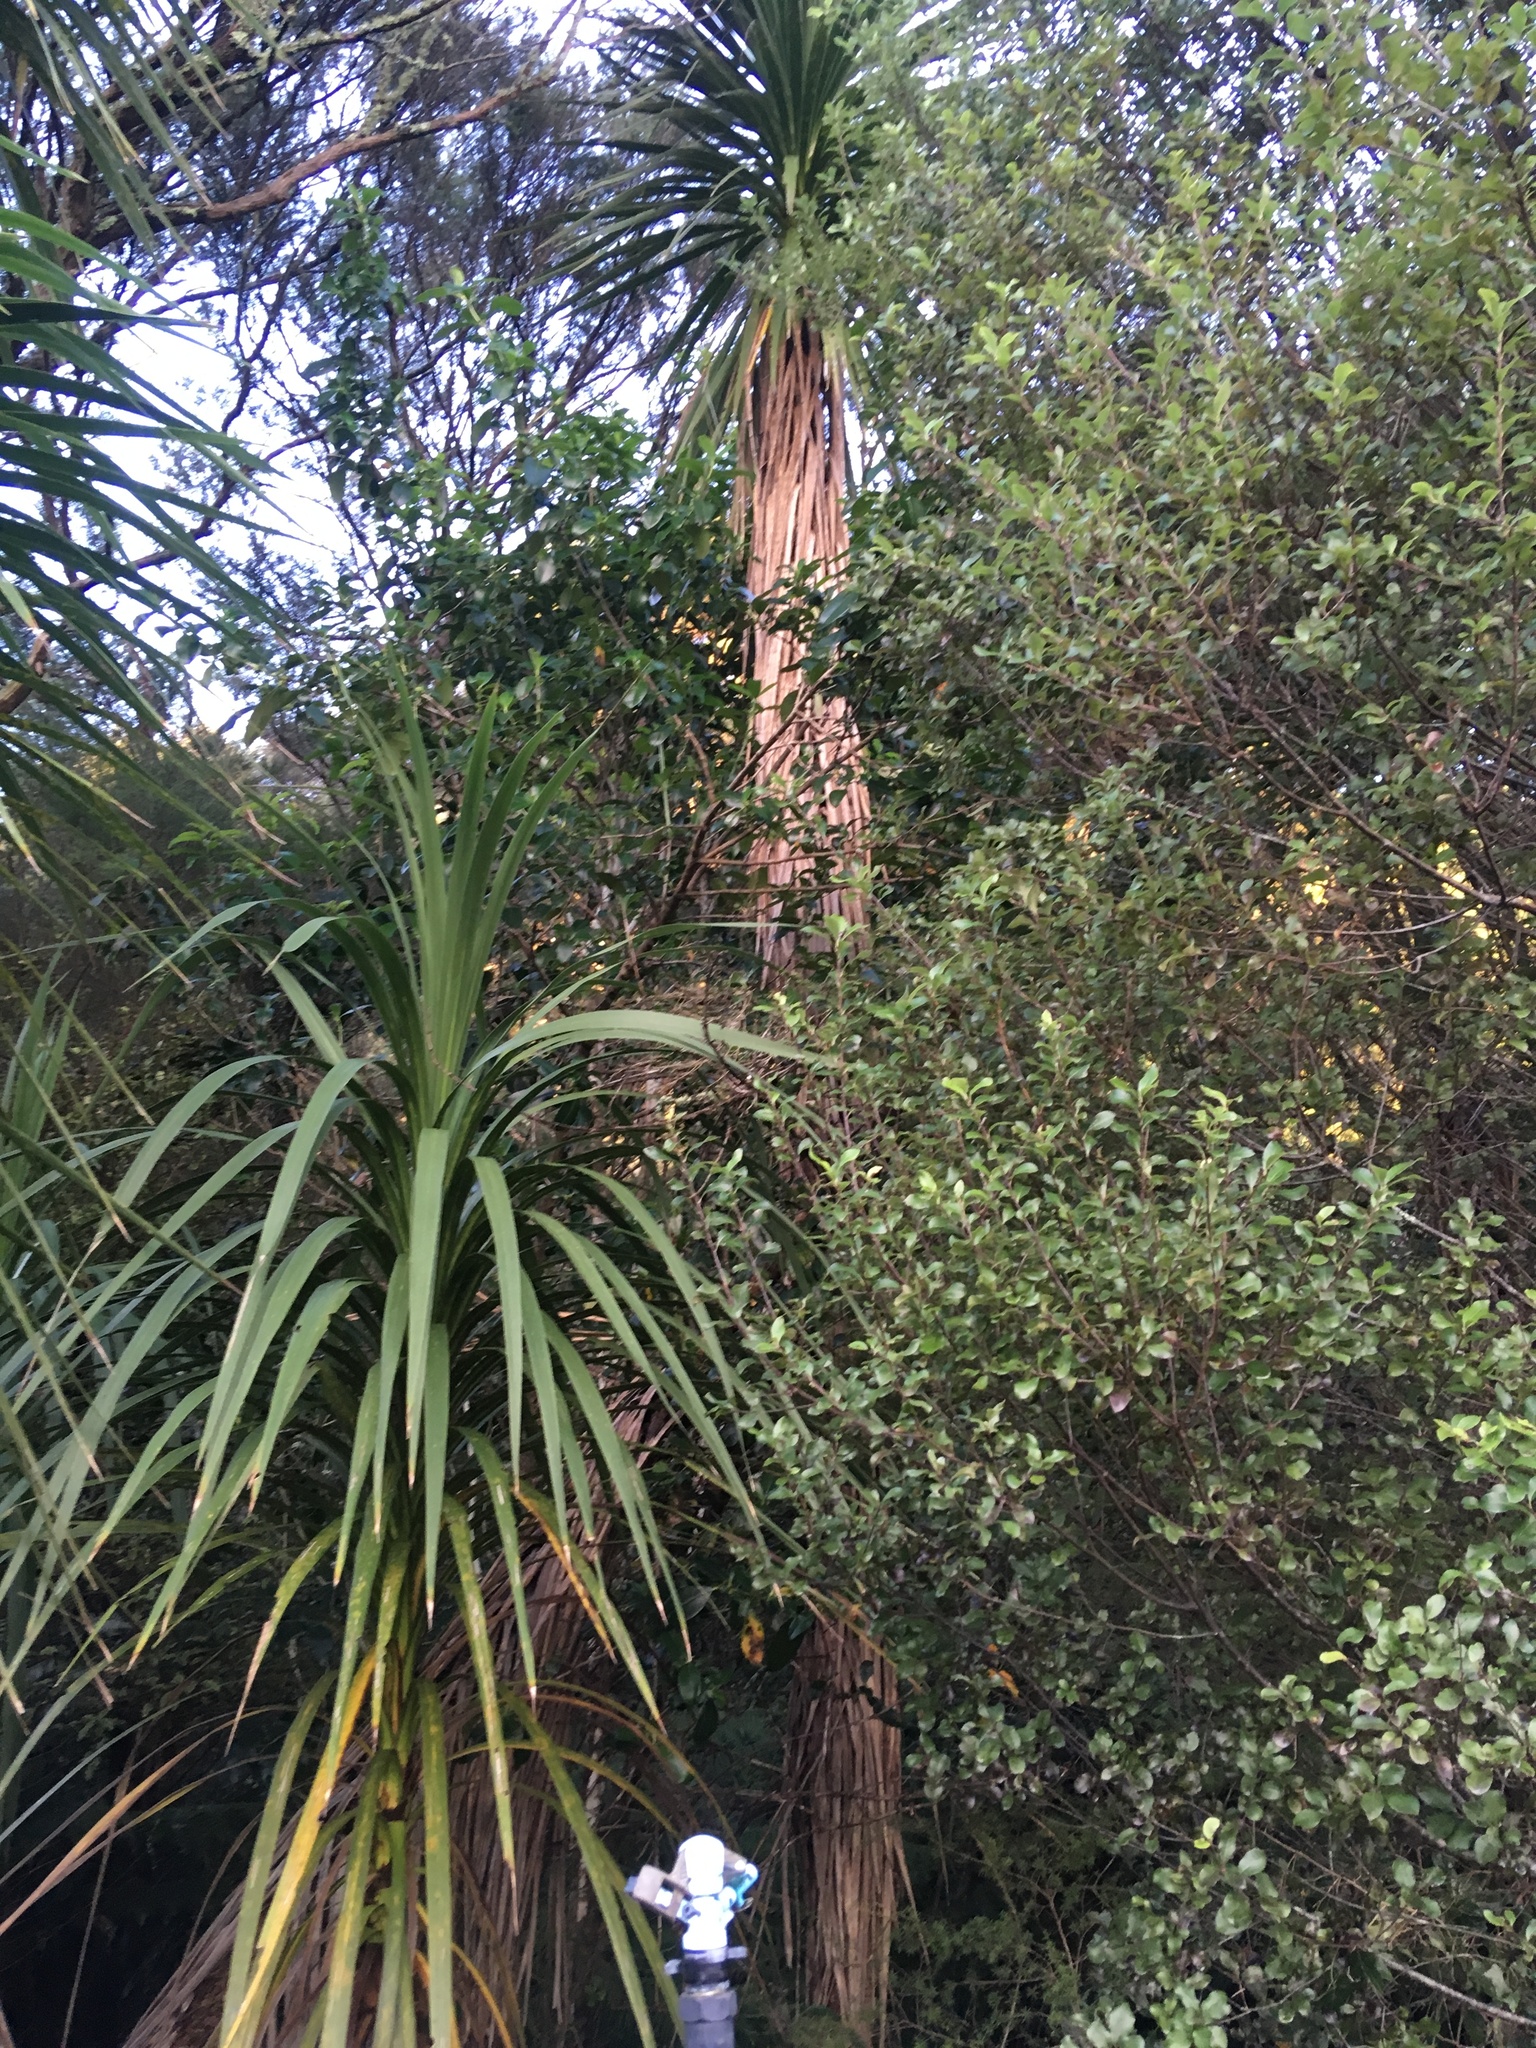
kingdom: Plantae
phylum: Tracheophyta
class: Liliopsida
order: Asparagales
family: Asparagaceae
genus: Cordyline
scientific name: Cordyline australis
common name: Cabbage-palm
